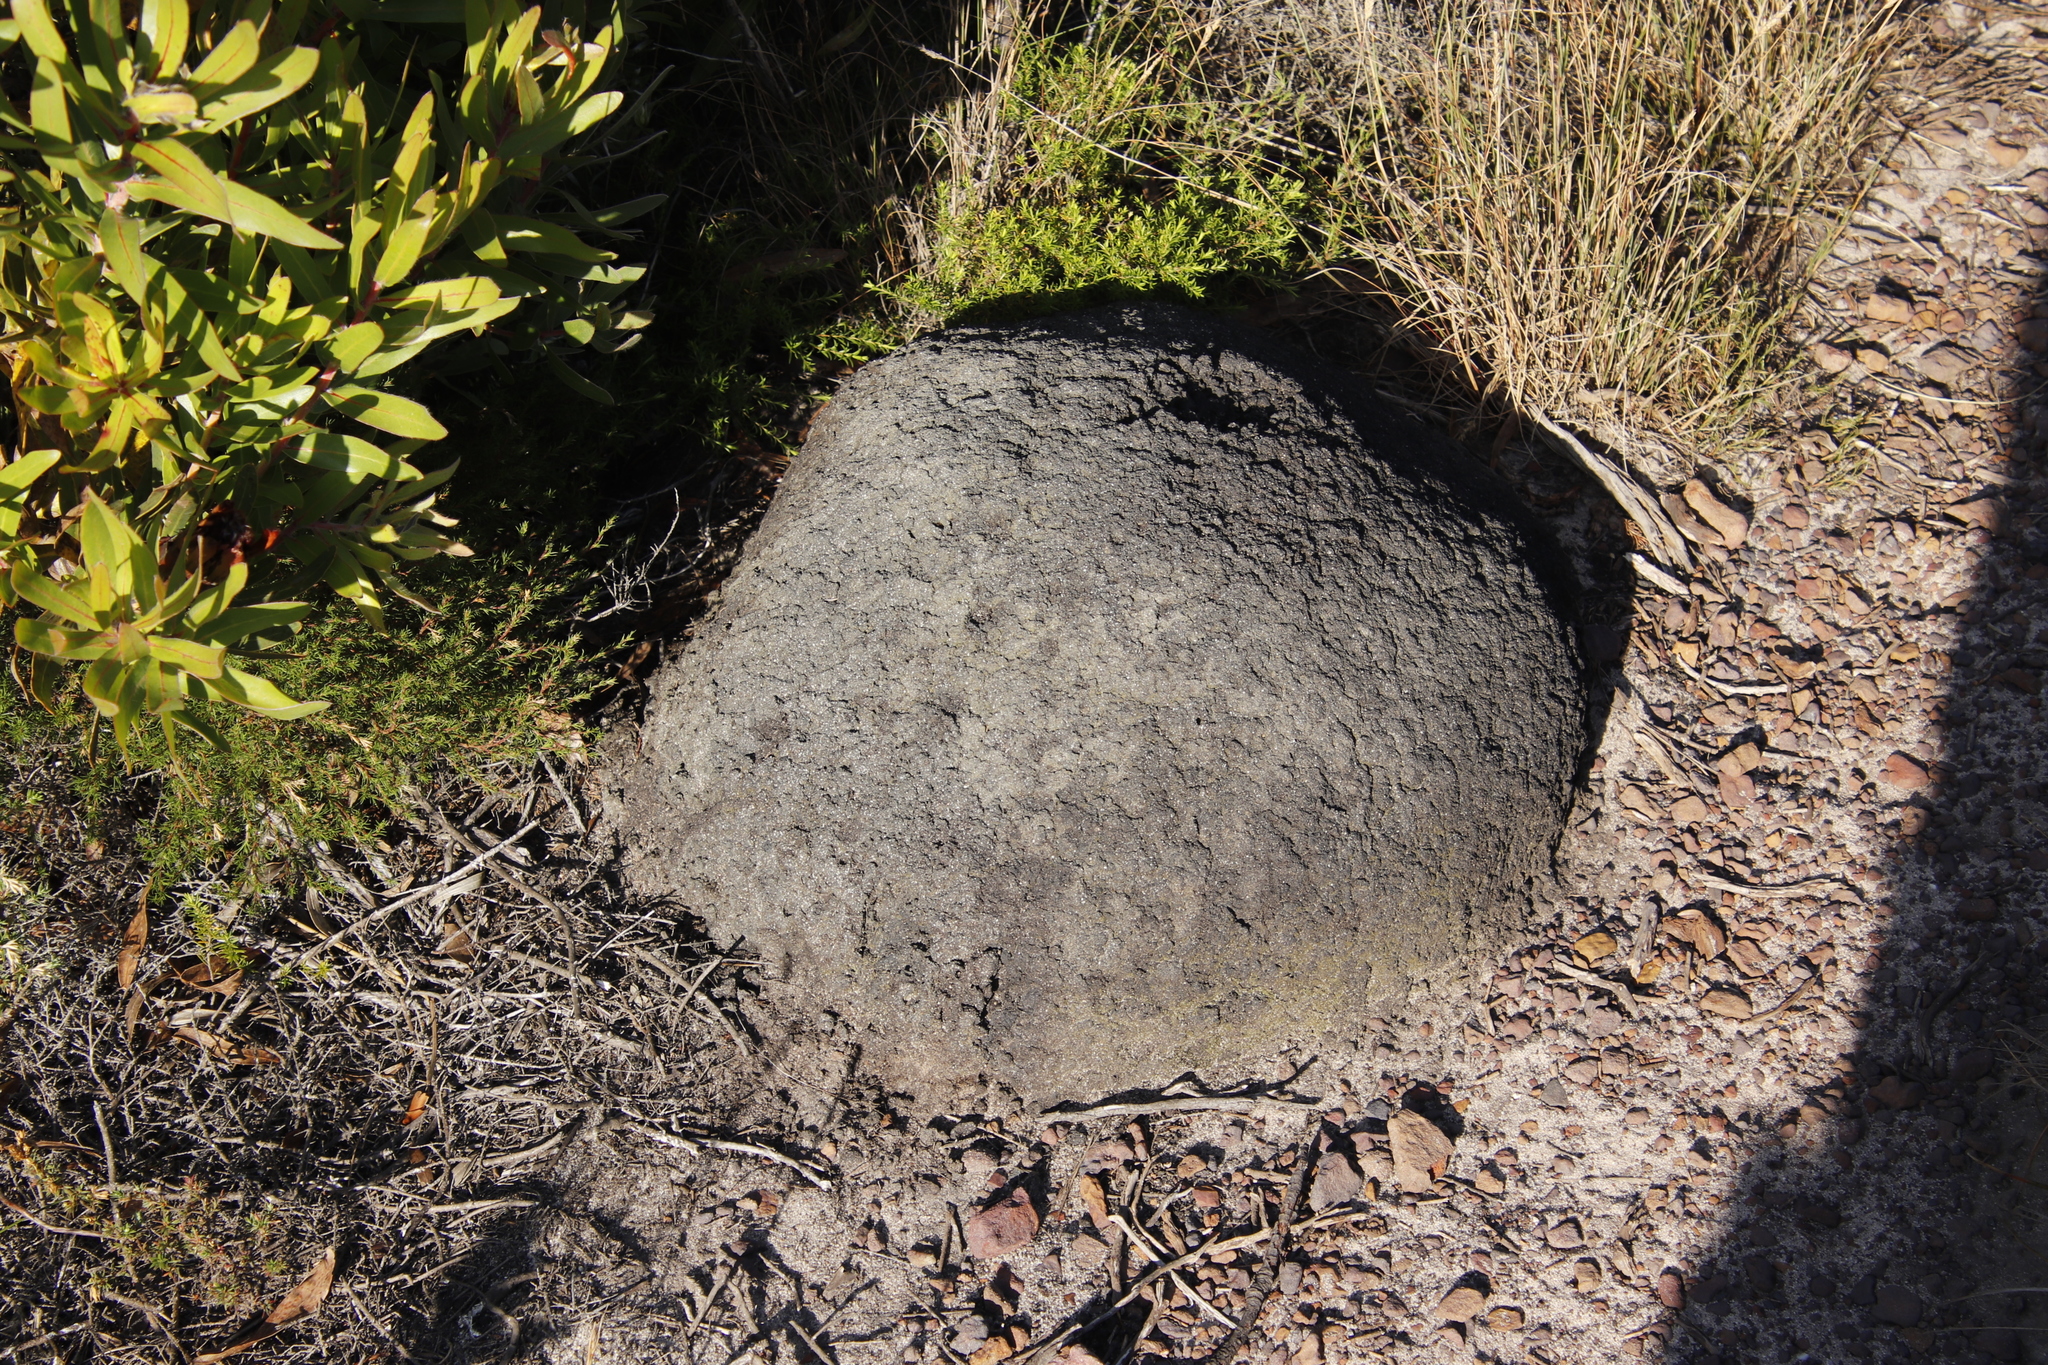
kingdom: Animalia
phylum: Arthropoda
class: Insecta
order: Blattodea
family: Termitidae
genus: Amitermes
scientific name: Amitermes hastatus
